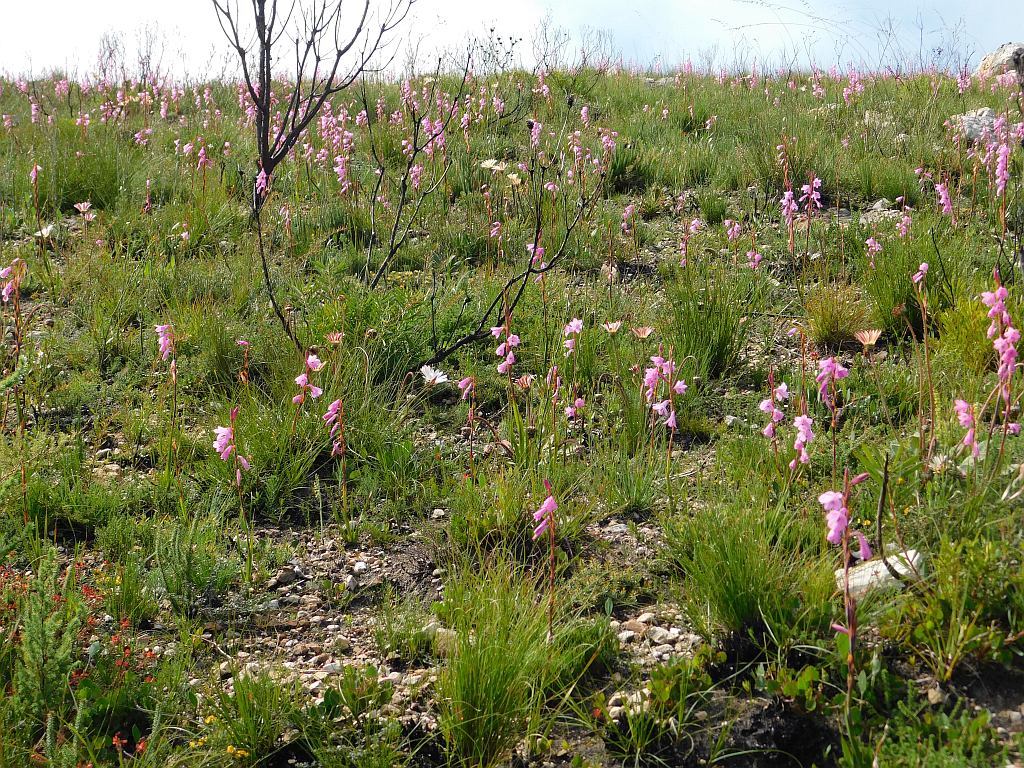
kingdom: Plantae
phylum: Tracheophyta
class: Liliopsida
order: Asparagales
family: Iridaceae
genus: Watsonia
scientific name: Watsonia laccata
